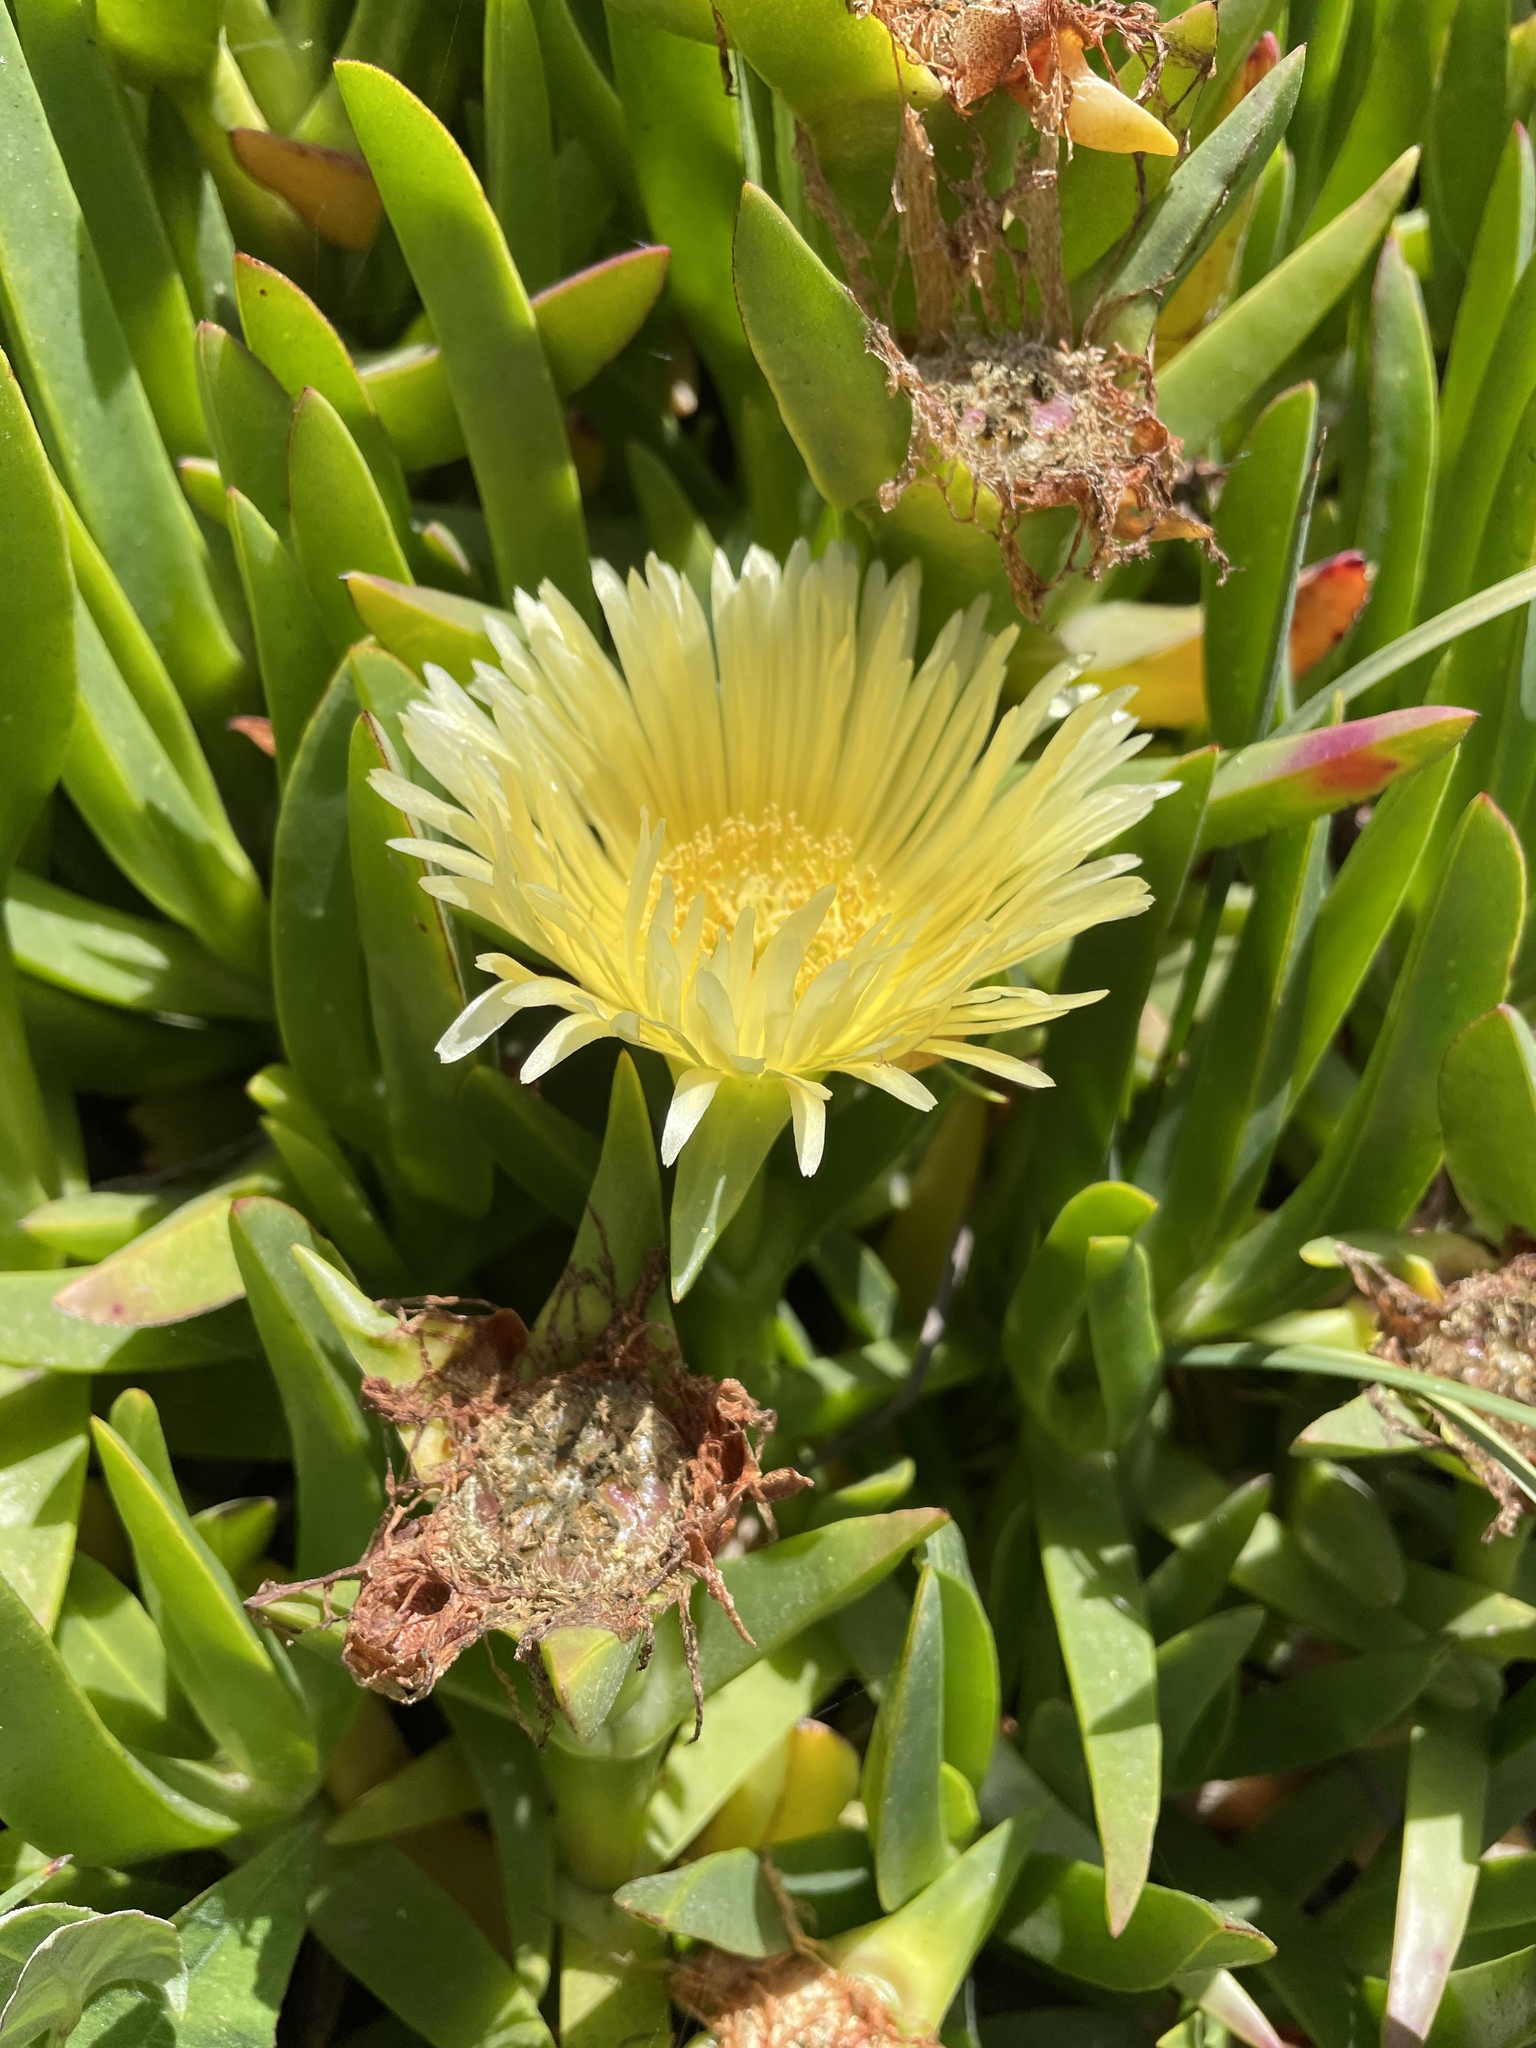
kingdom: Plantae
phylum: Tracheophyta
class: Magnoliopsida
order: Caryophyllales
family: Aizoaceae
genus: Carpobrotus
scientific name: Carpobrotus edulis
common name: Hottentot-fig
